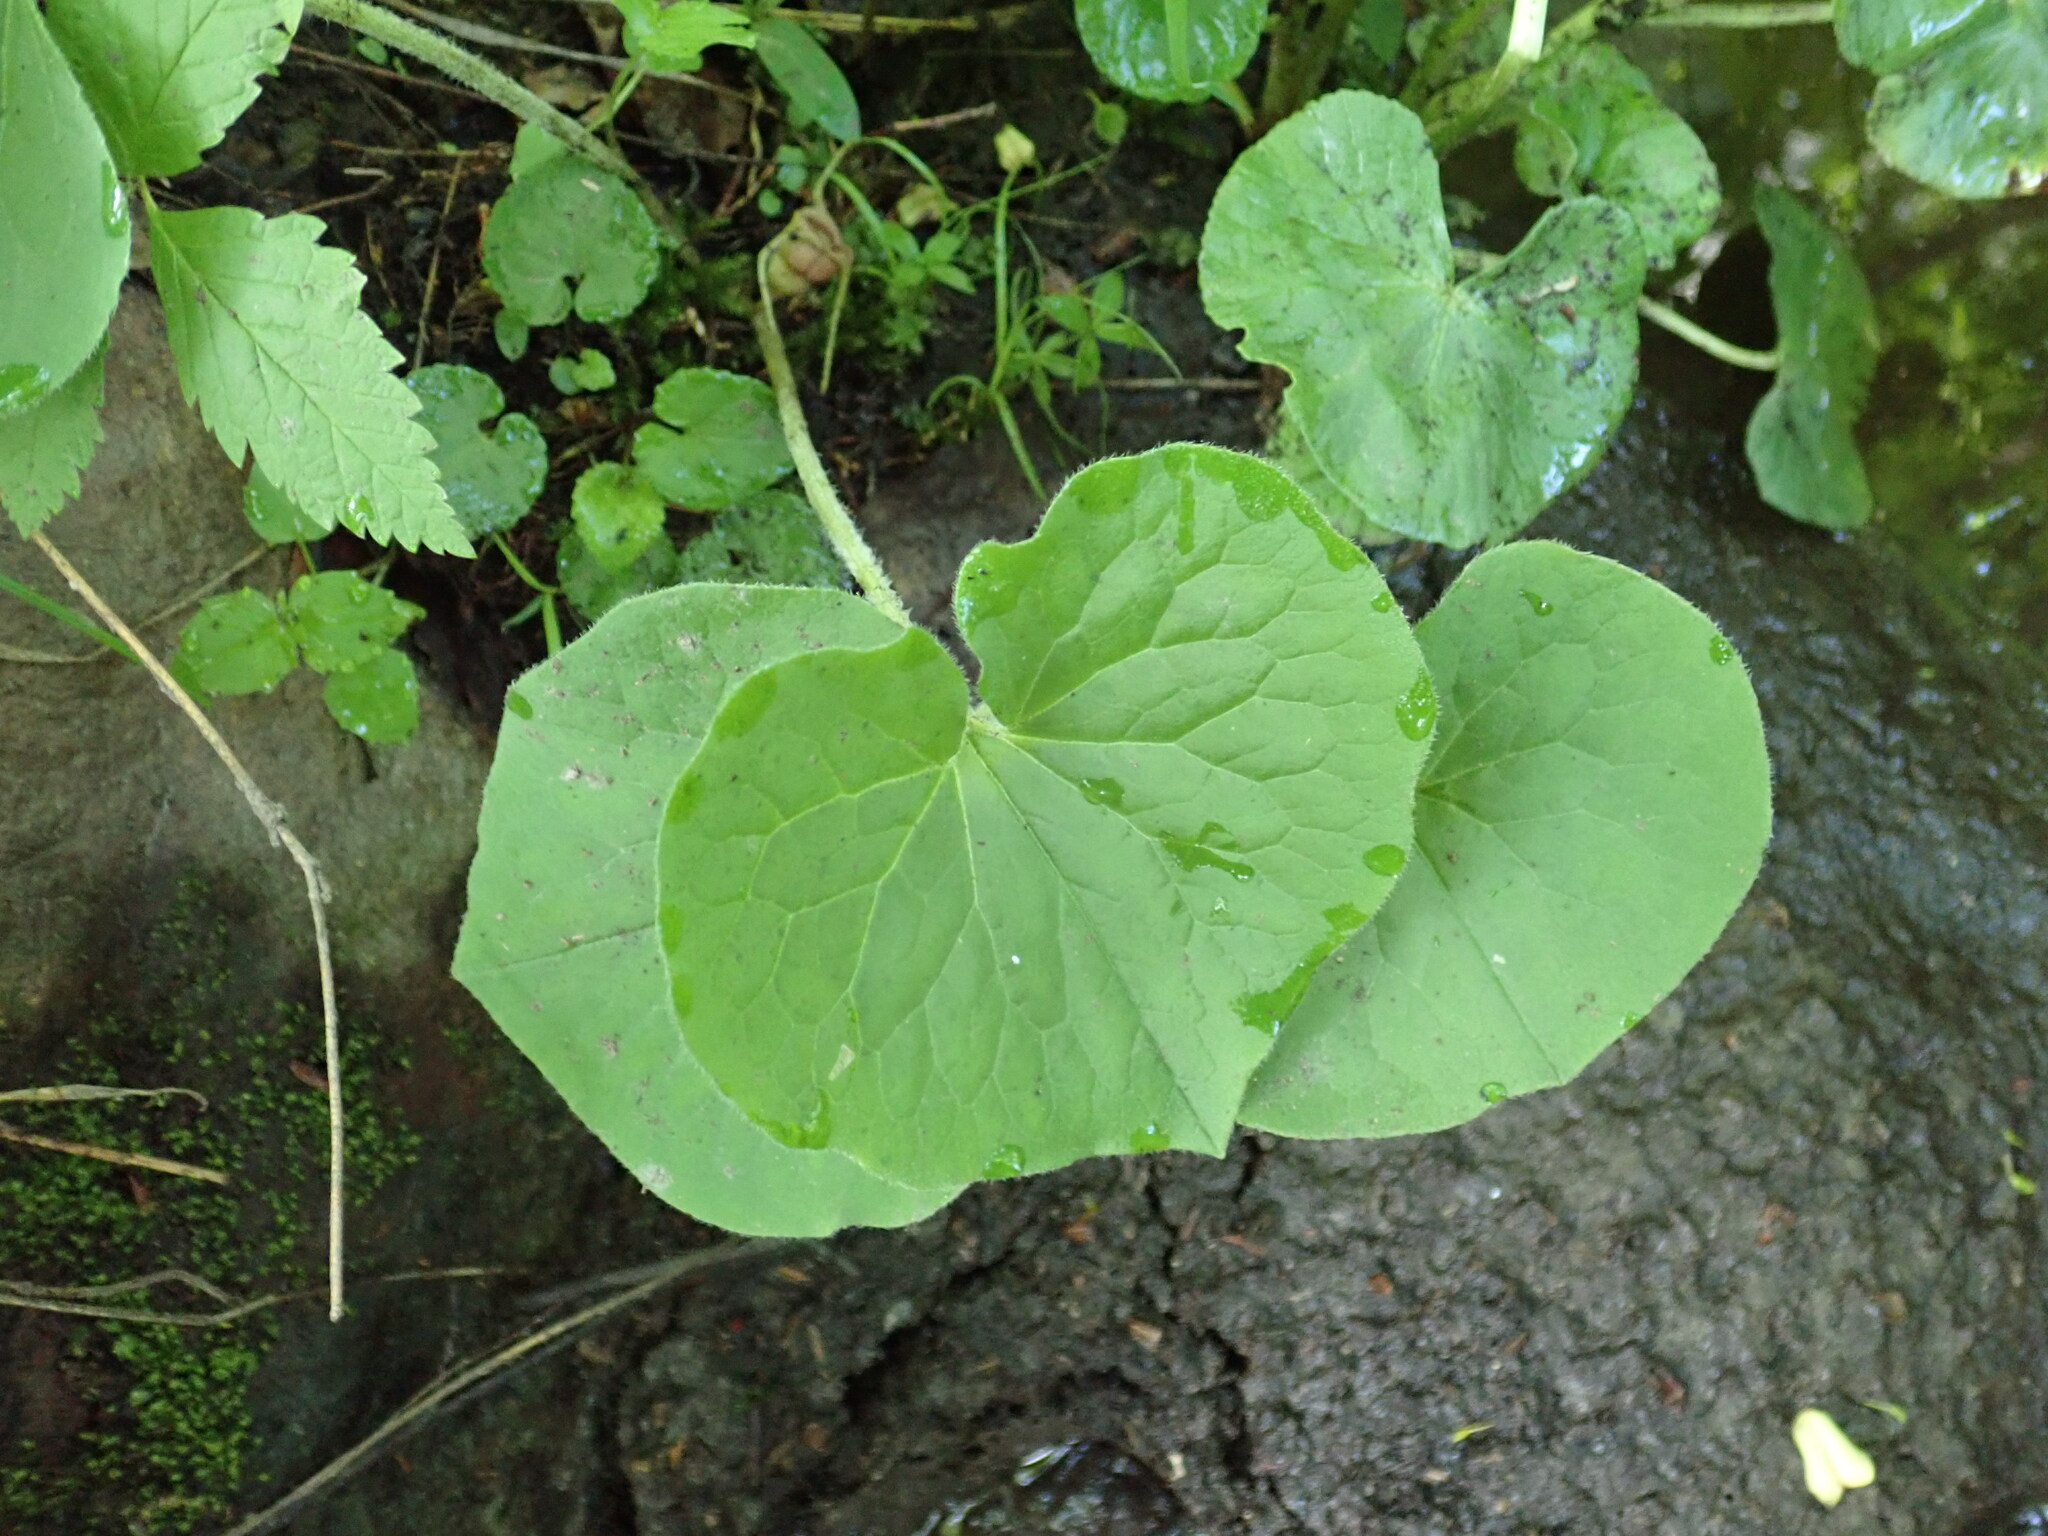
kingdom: Plantae
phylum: Tracheophyta
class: Magnoliopsida
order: Piperales
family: Aristolochiaceae
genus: Asarum
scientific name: Asarum canadense
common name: Wild ginger
